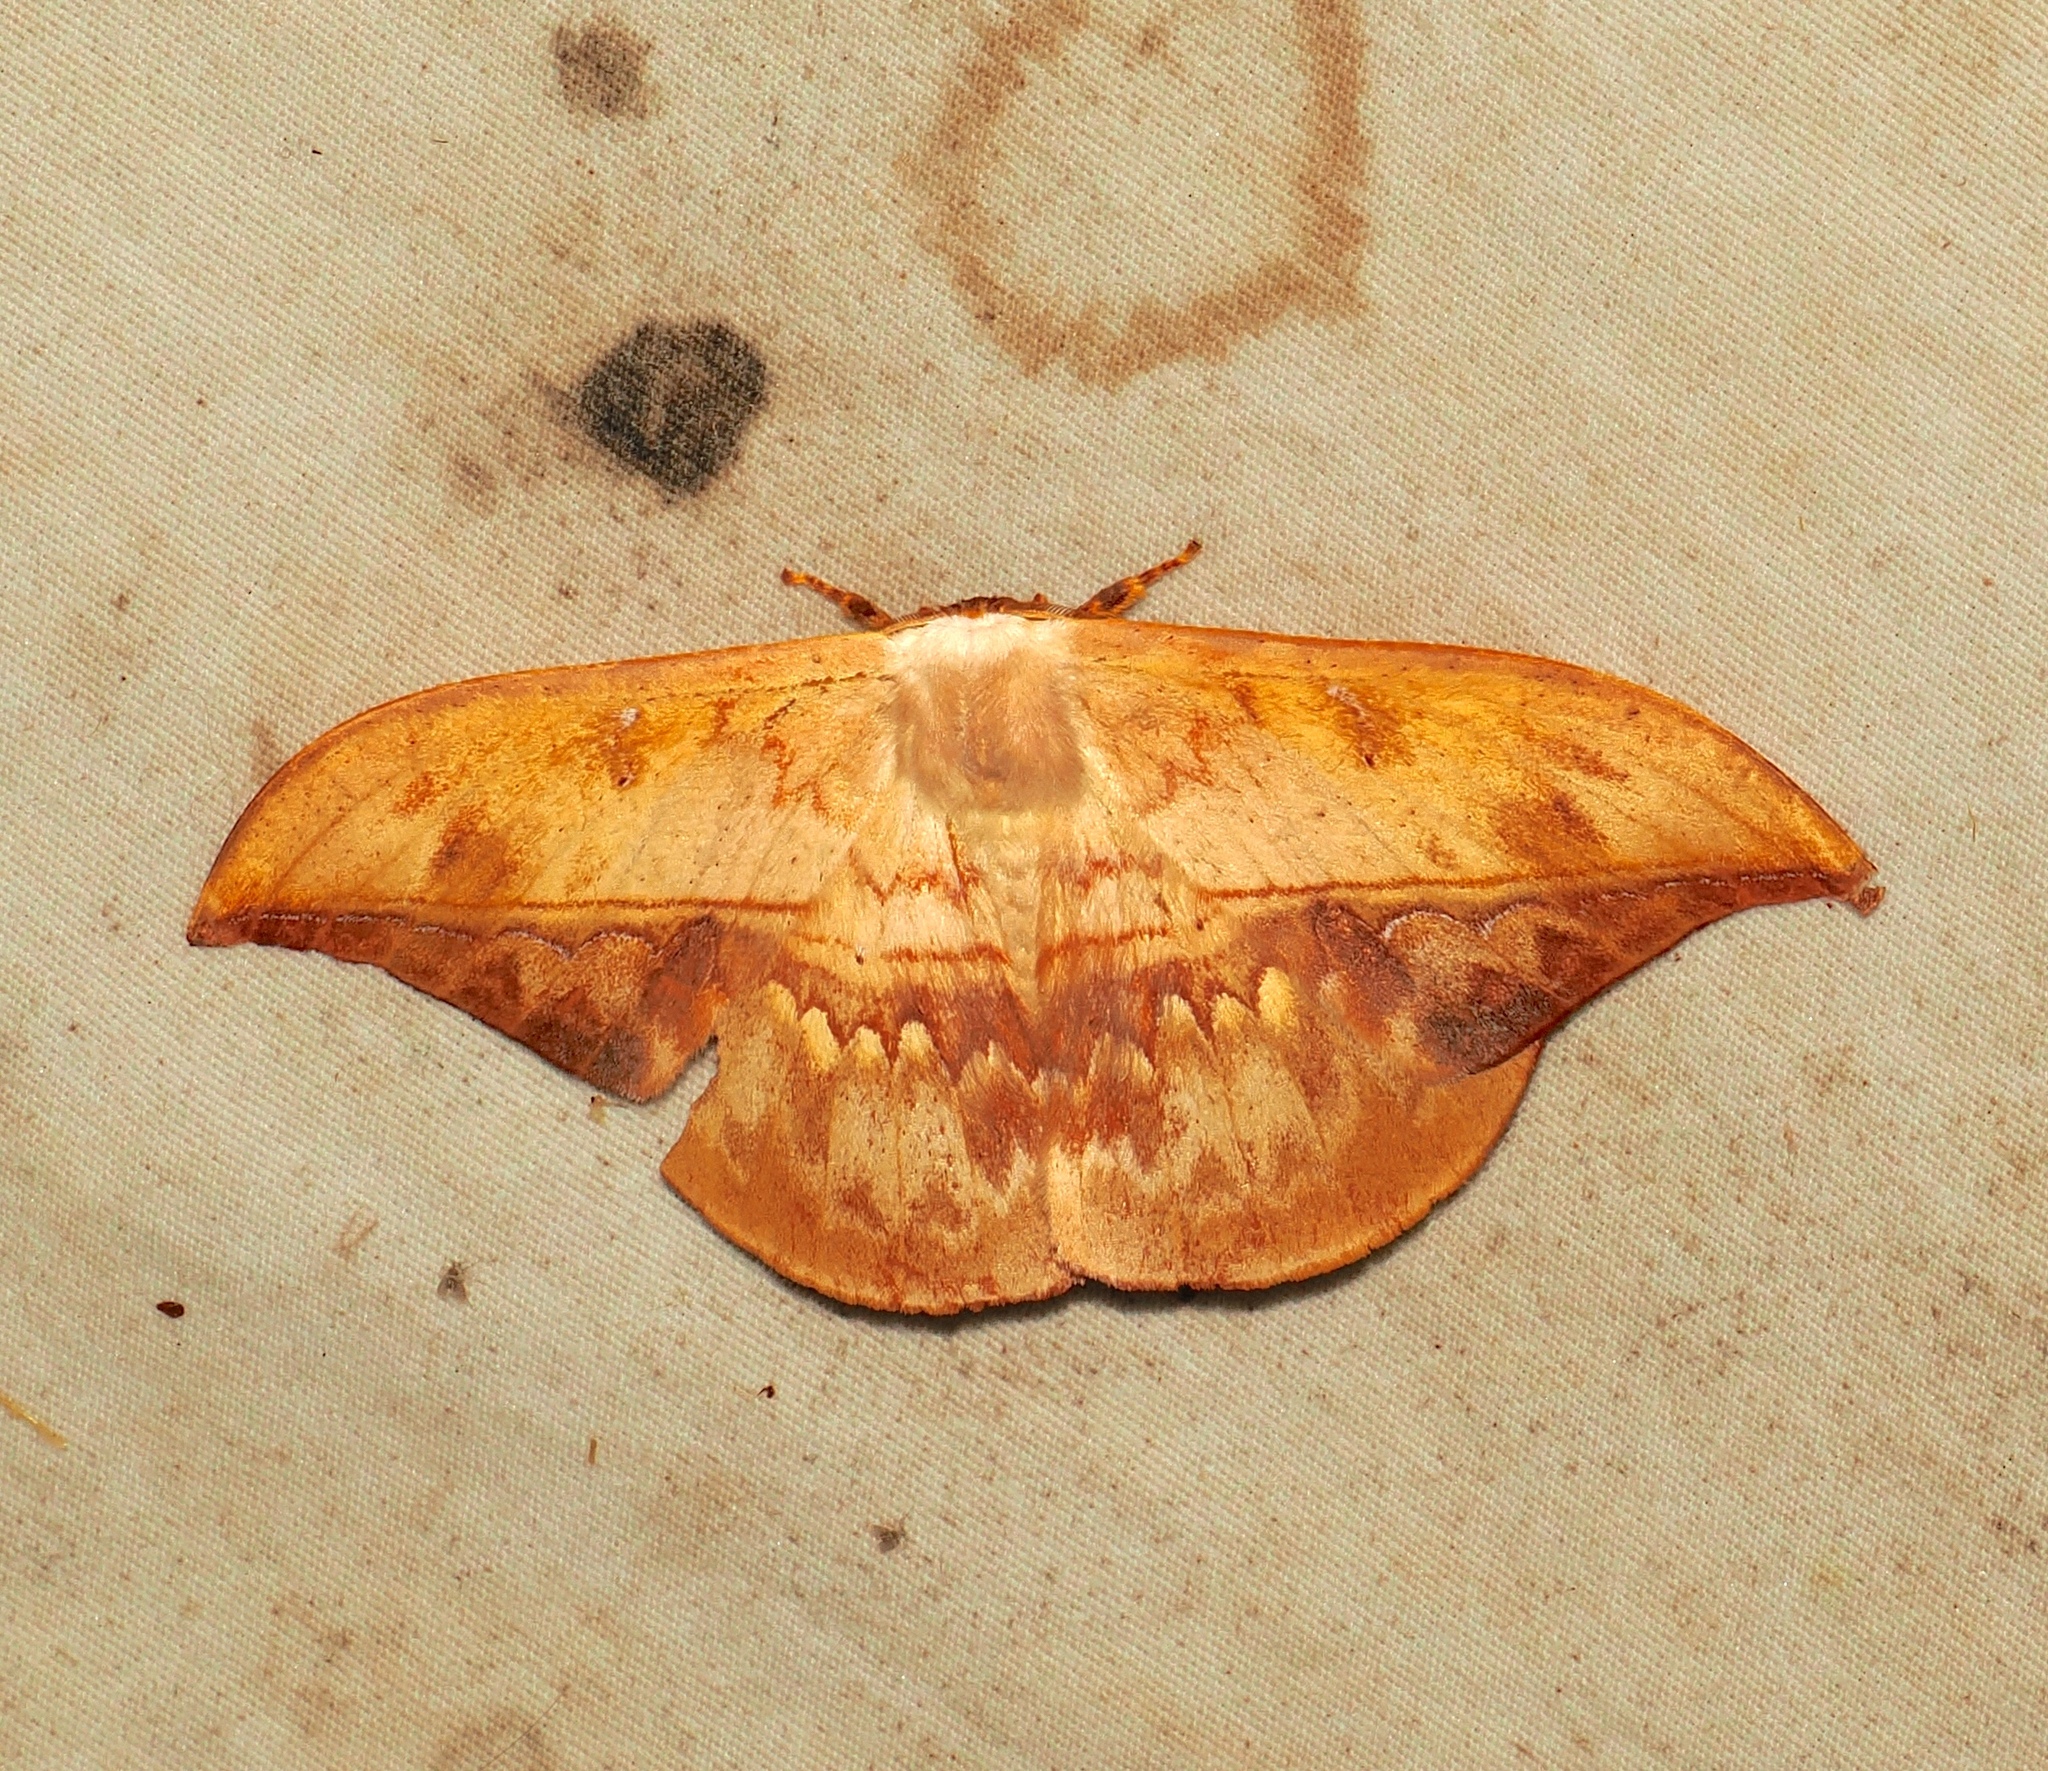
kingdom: Animalia
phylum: Arthropoda
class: Insecta
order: Lepidoptera
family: Saturniidae
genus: Oxytenis
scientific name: Oxytenis modestia
